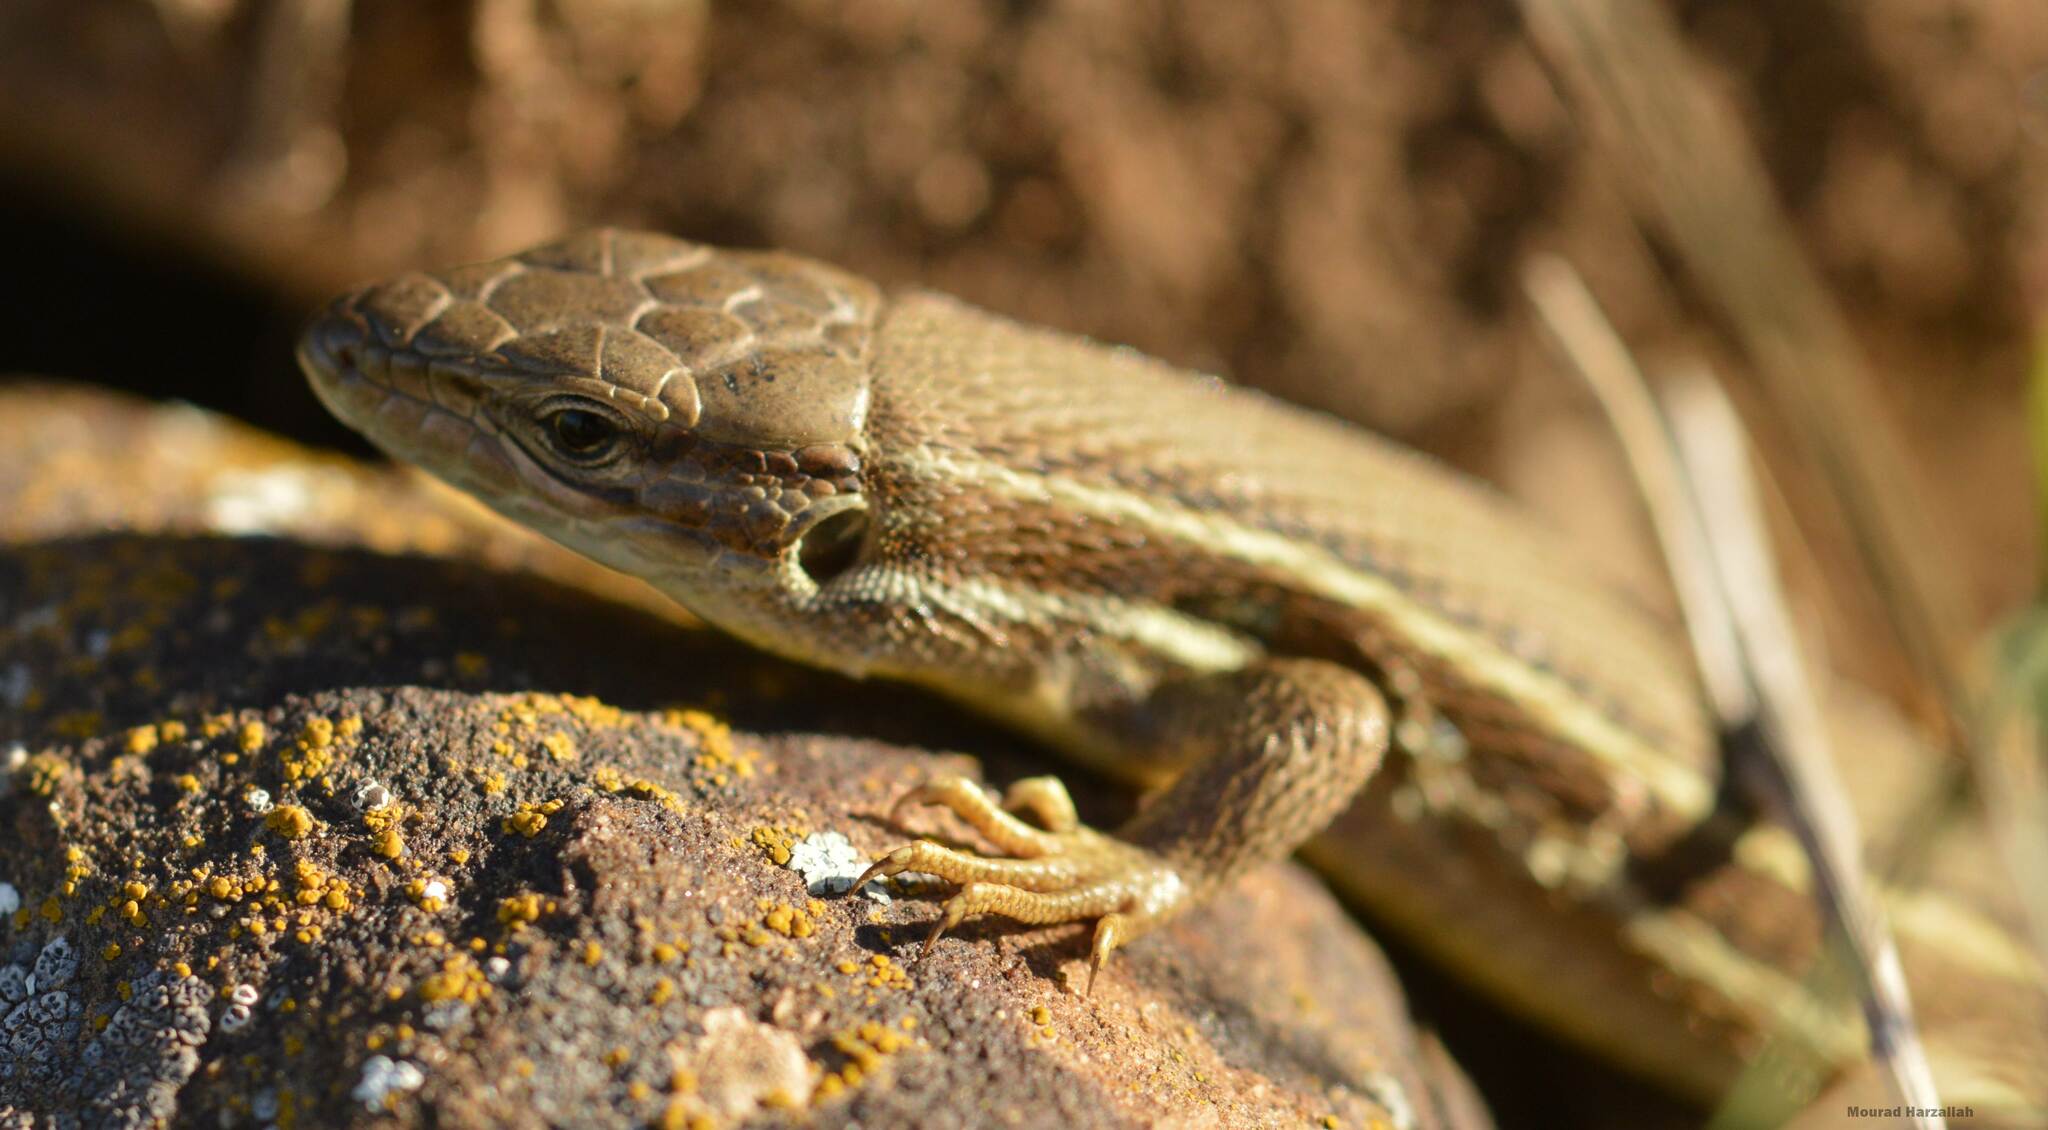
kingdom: Animalia
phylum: Chordata
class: Squamata
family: Lacertidae
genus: Psammodromus
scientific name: Psammodromus algirus
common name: Algerian psammodromus
